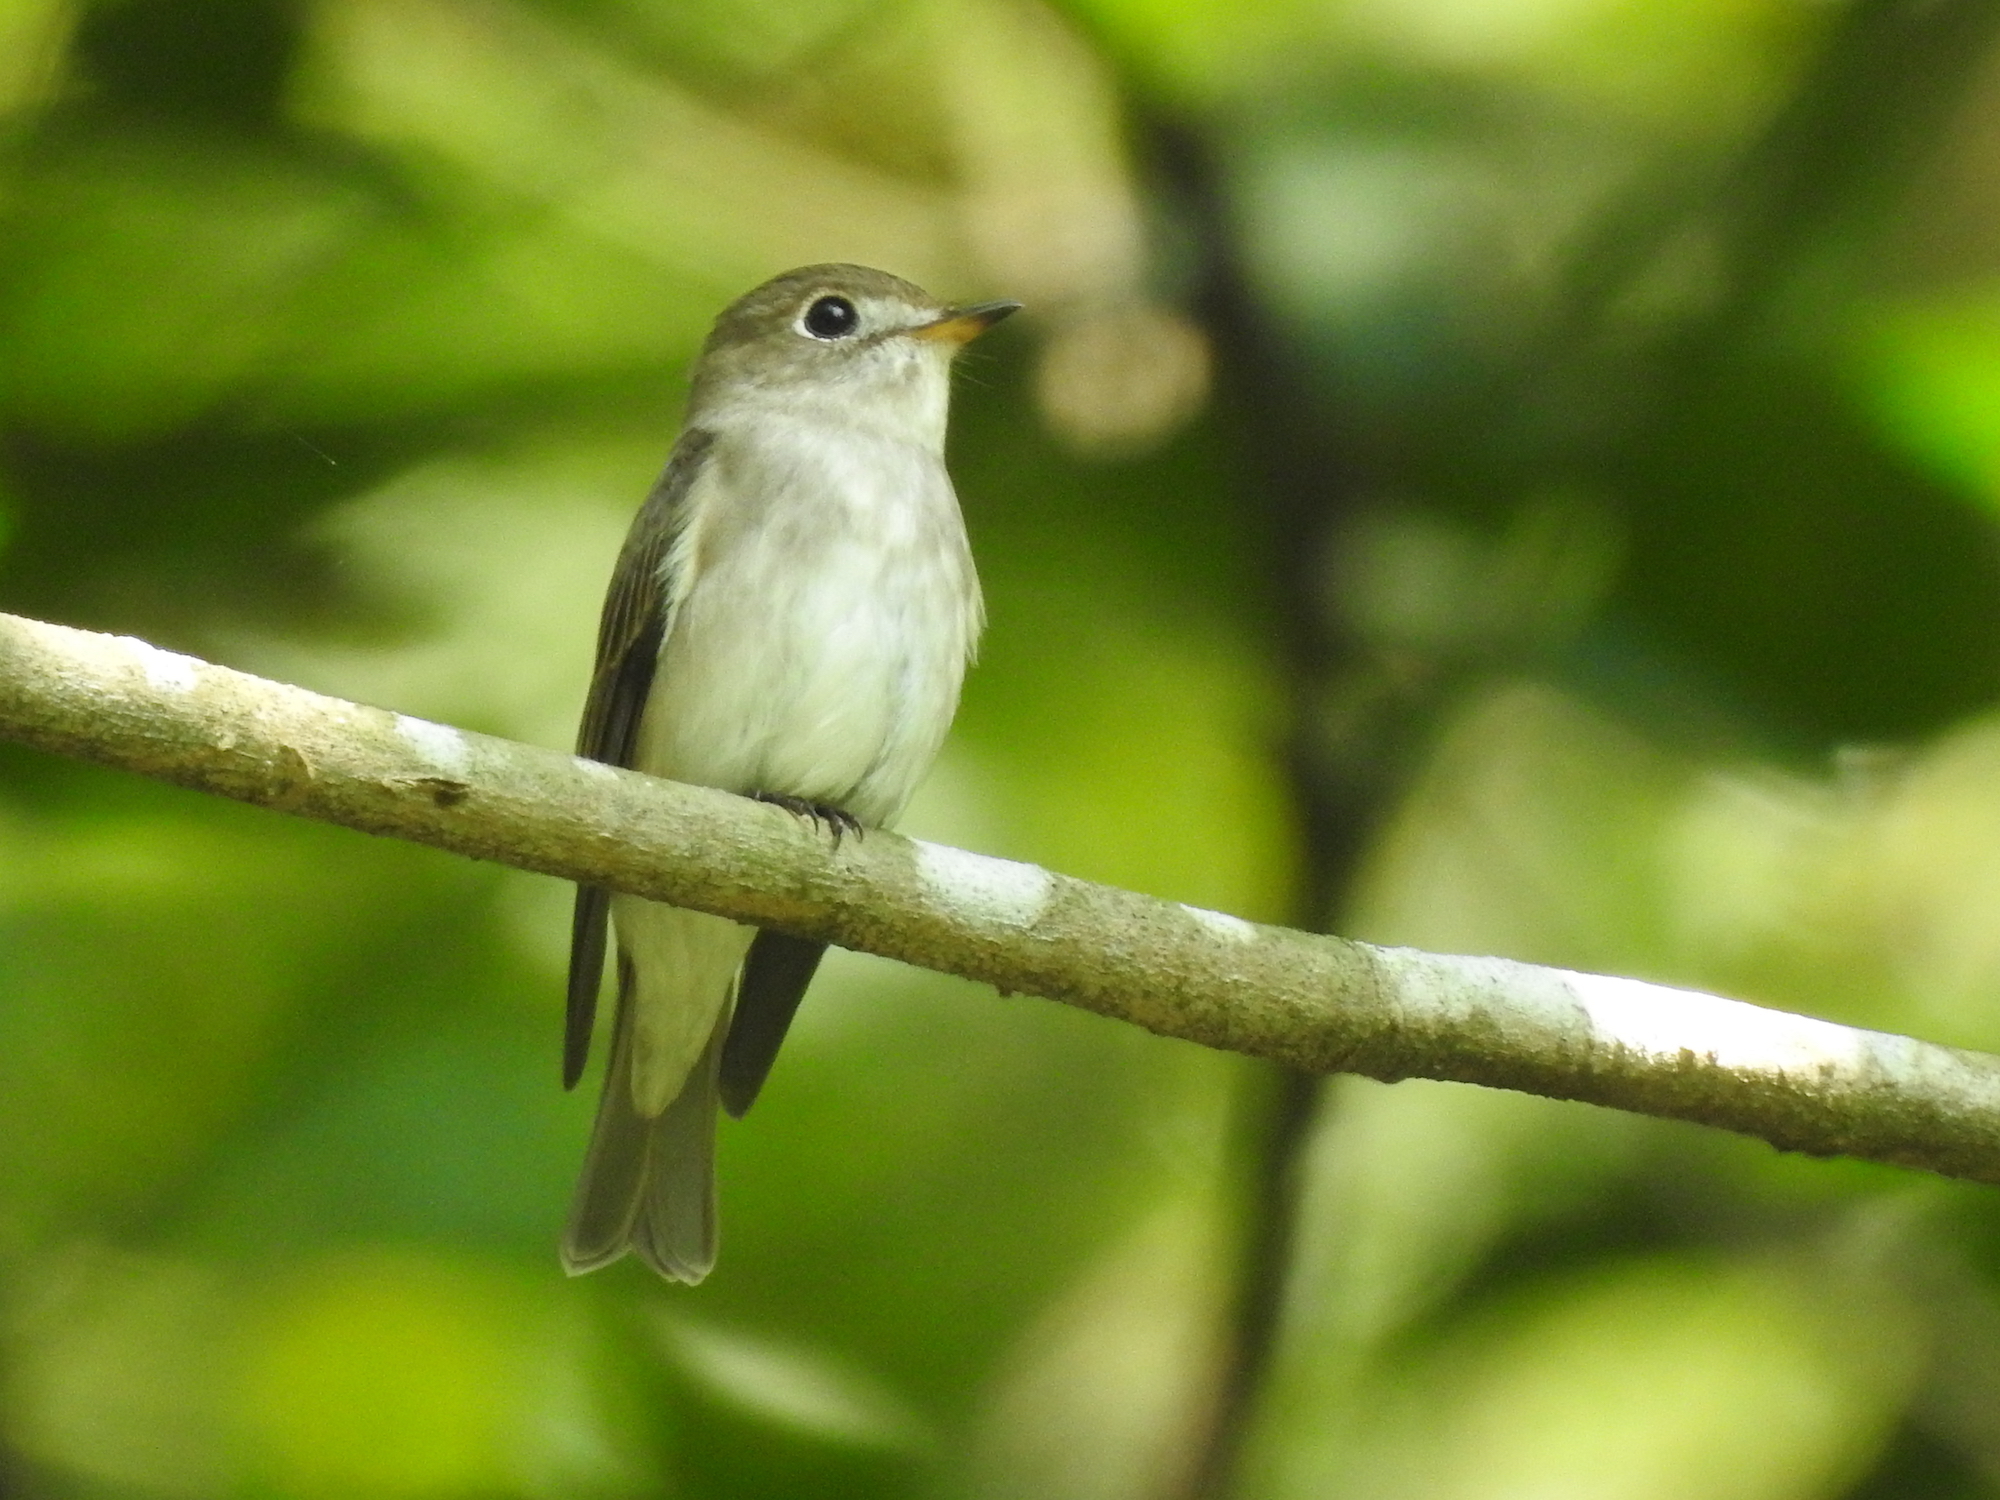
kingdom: Animalia
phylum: Chordata
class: Aves
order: Passeriformes
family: Muscicapidae
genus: Muscicapa
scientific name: Muscicapa latirostris
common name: Asian brown flycatcher
